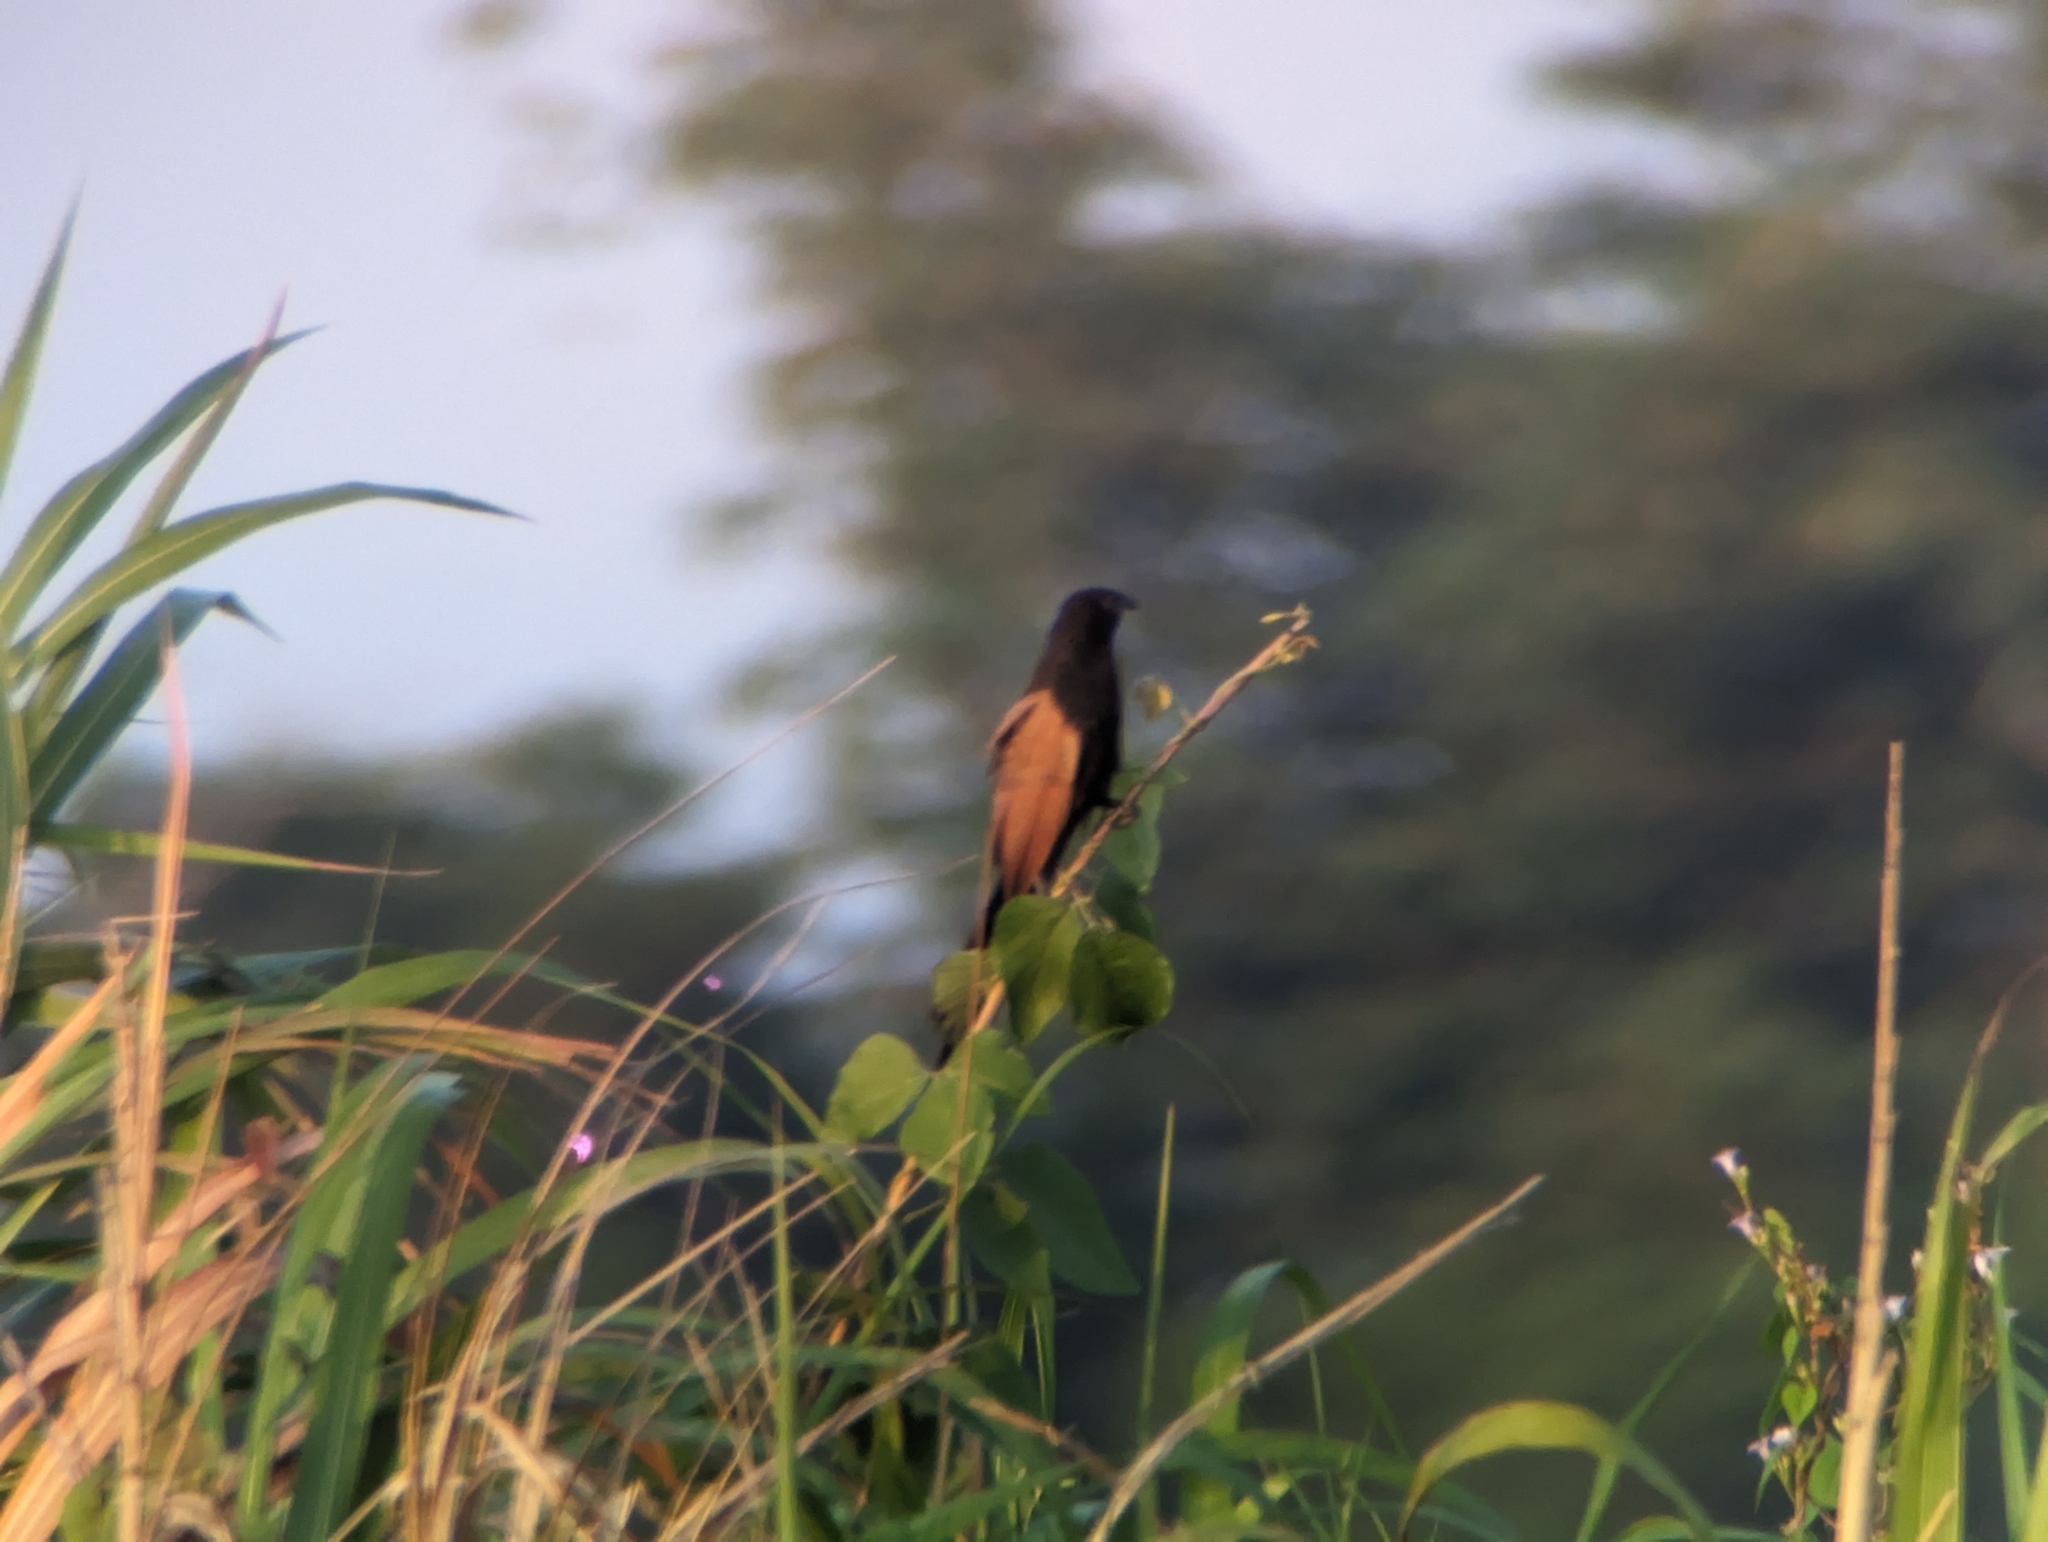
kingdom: Animalia
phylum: Chordata
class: Aves
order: Cuculiformes
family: Cuculidae
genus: Centropus
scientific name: Centropus bengalensis
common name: Lesser coucal
